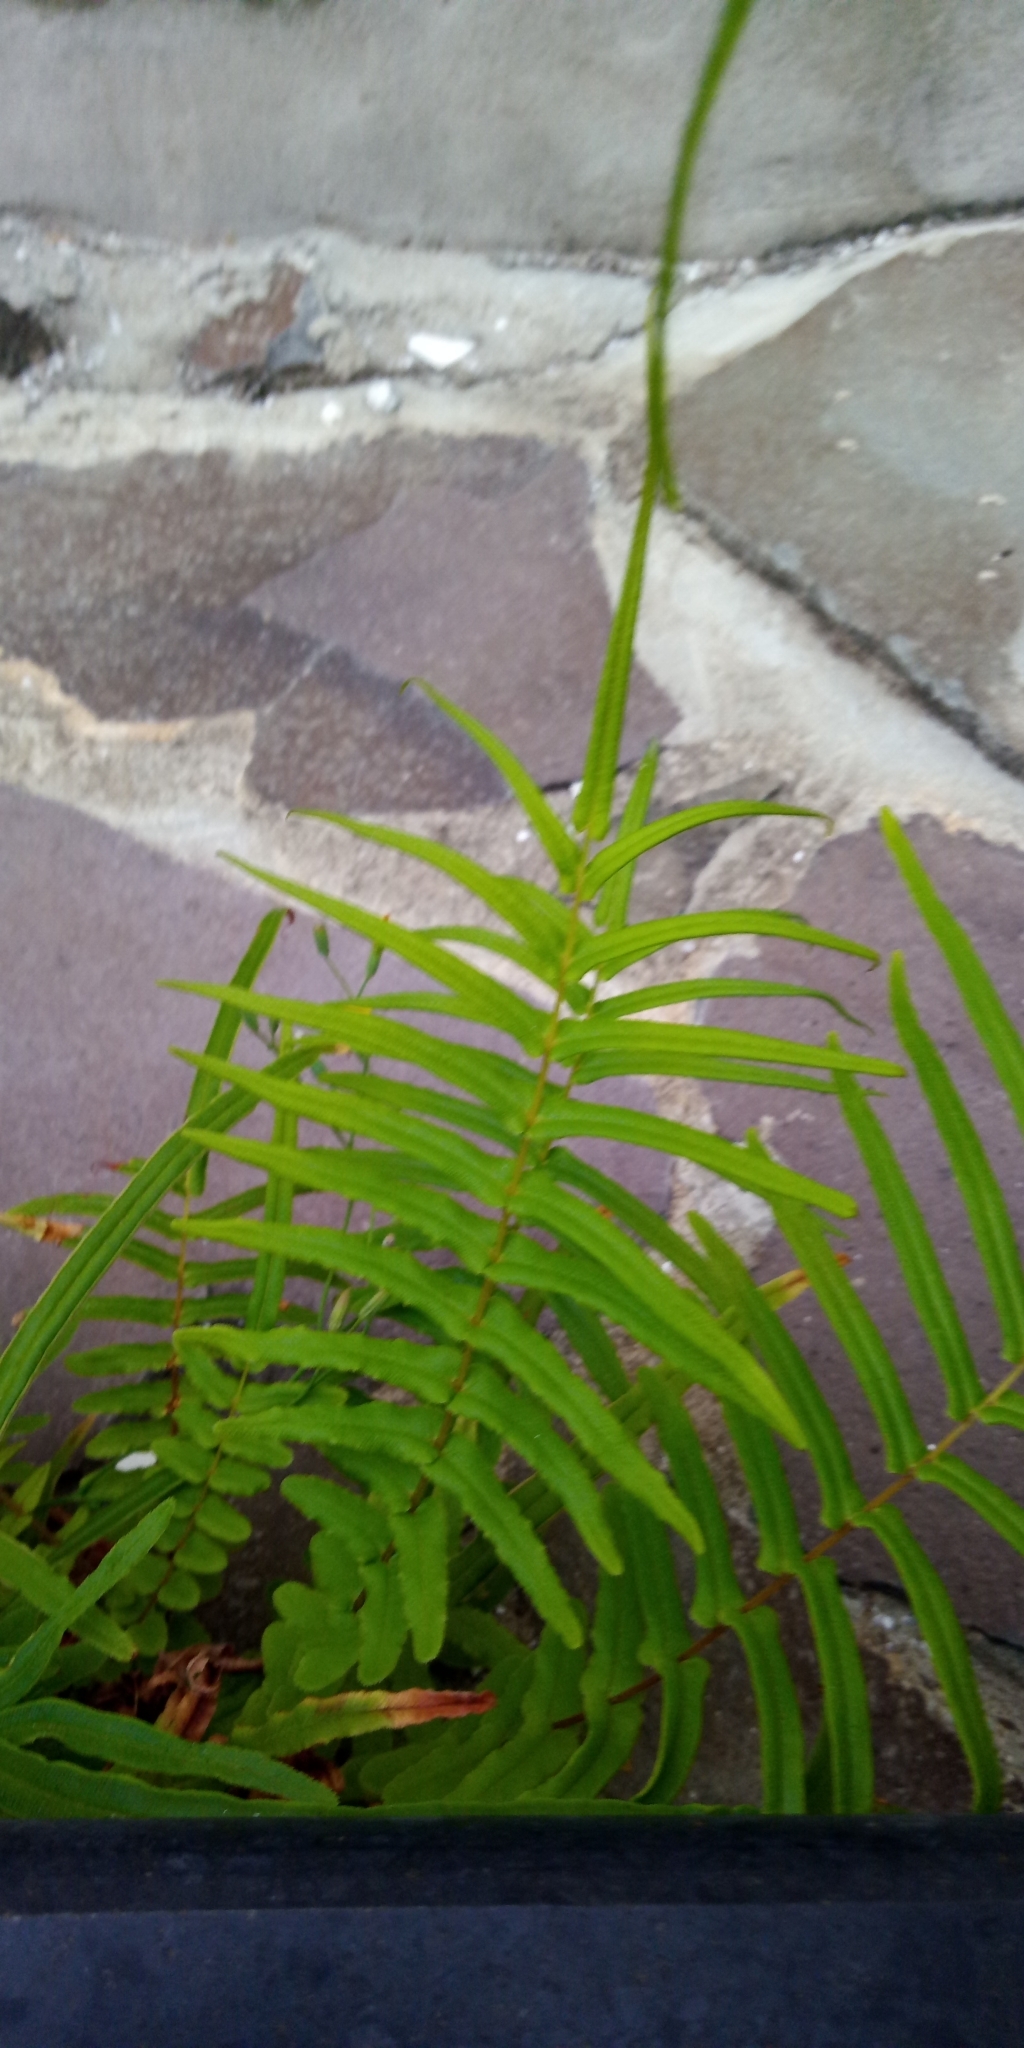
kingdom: Plantae
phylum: Tracheophyta
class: Polypodiopsida
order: Polypodiales
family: Pteridaceae
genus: Pteris
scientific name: Pteris vittata
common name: Ladder brake
